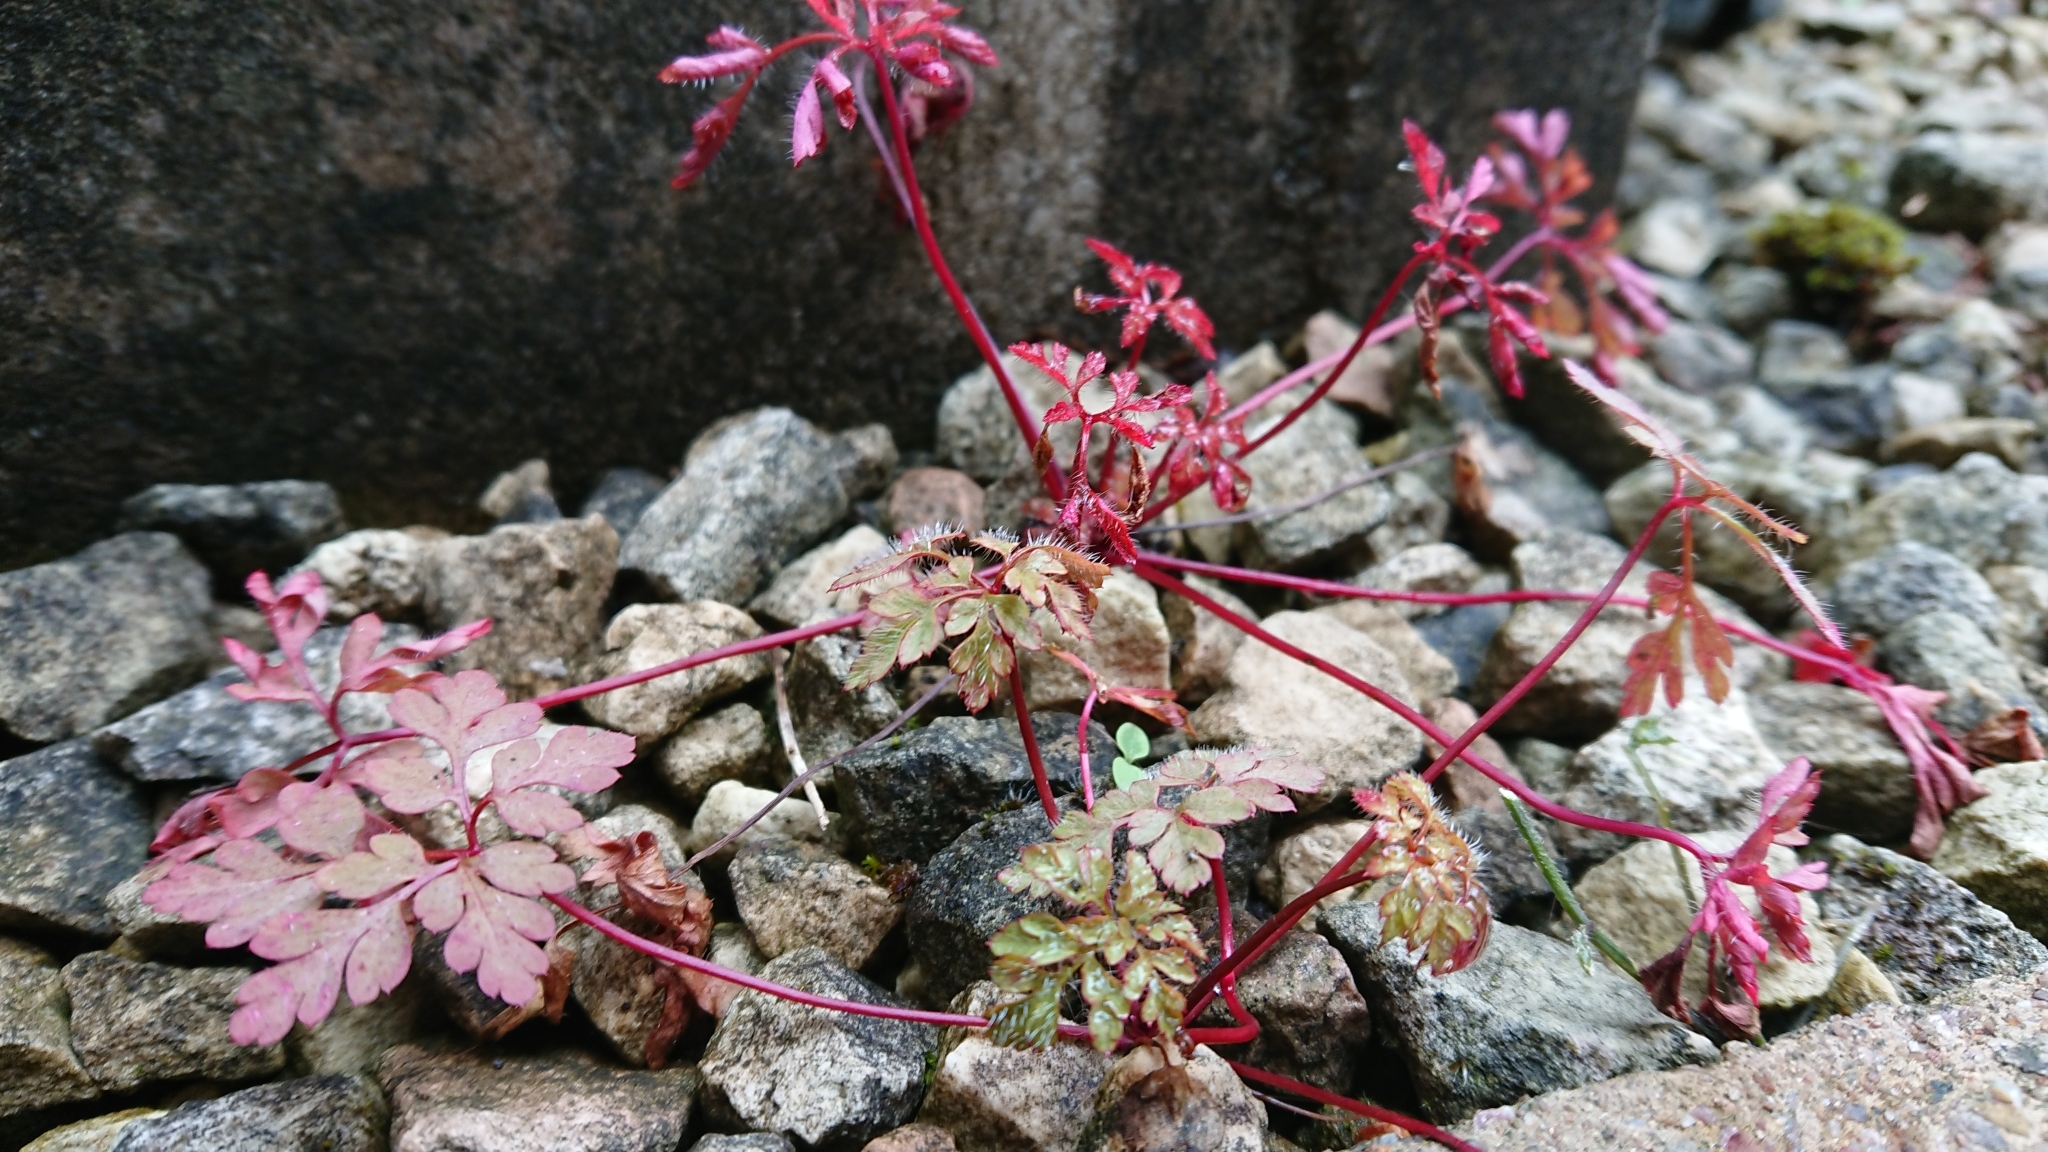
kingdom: Plantae
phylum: Tracheophyta
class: Magnoliopsida
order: Geraniales
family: Geraniaceae
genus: Geranium
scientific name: Geranium robertianum
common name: Herb-robert
